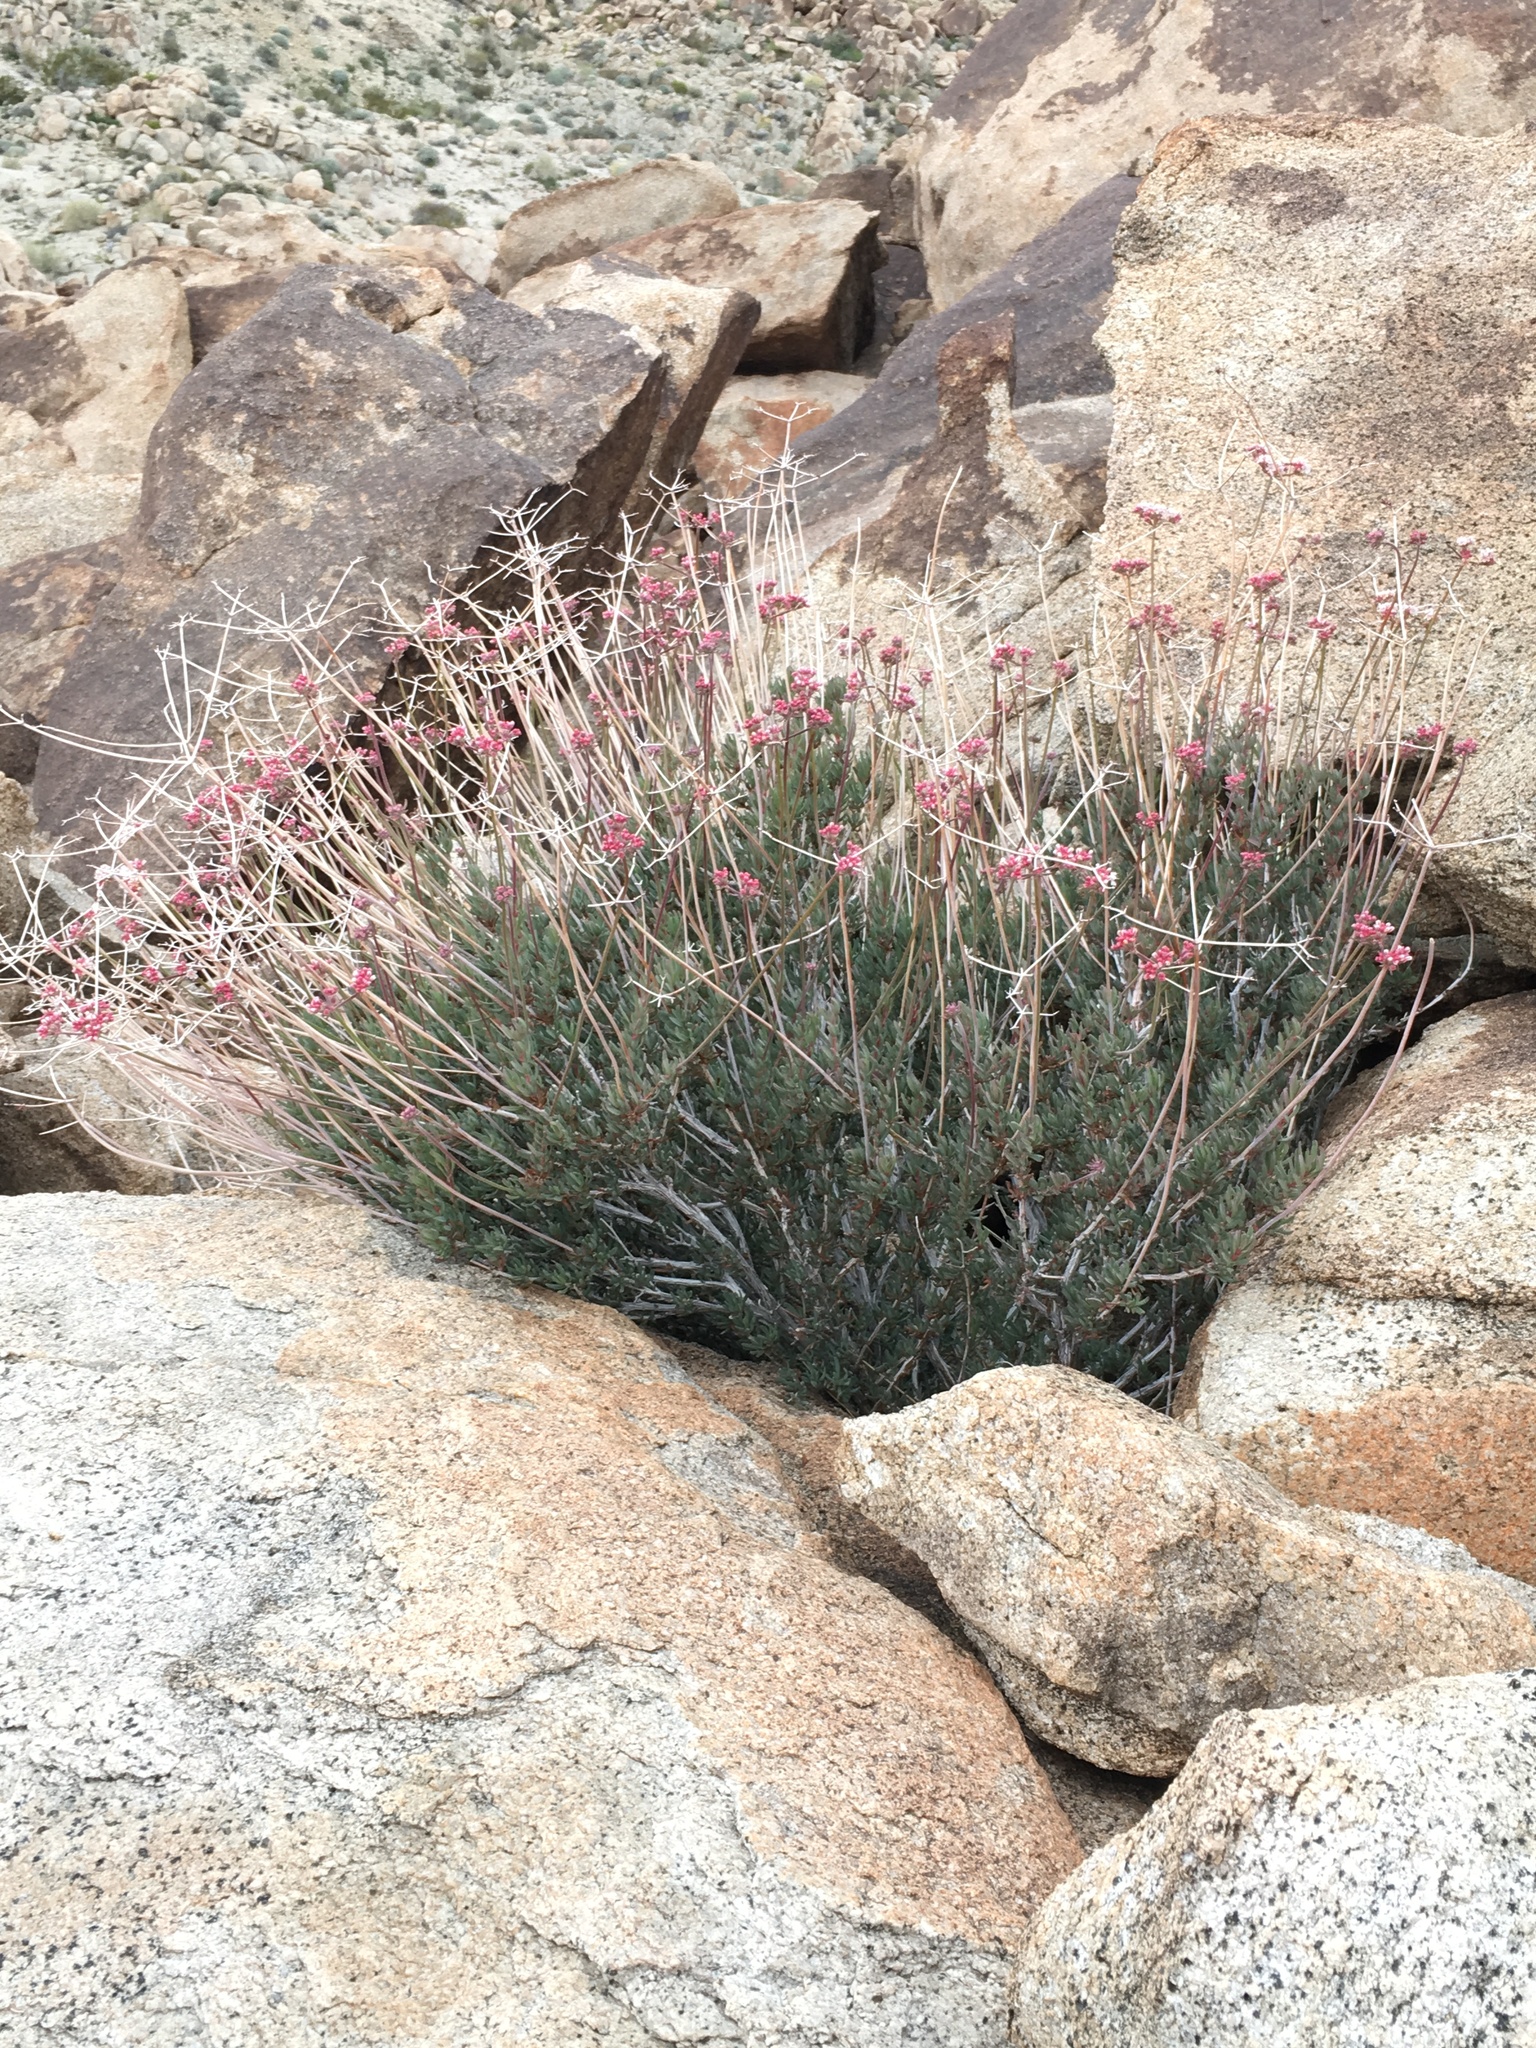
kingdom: Plantae
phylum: Tracheophyta
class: Magnoliopsida
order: Caryophyllales
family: Polygonaceae
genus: Eriogonum
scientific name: Eriogonum fasciculatum
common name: California wild buckwheat
